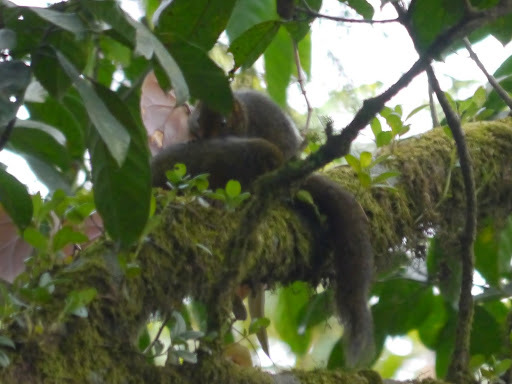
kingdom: Animalia
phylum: Chordata
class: Mammalia
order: Rodentia
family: Sciuridae
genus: Paraxerus
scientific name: Paraxerus cooperi
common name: Cooper's mountain squirrel
